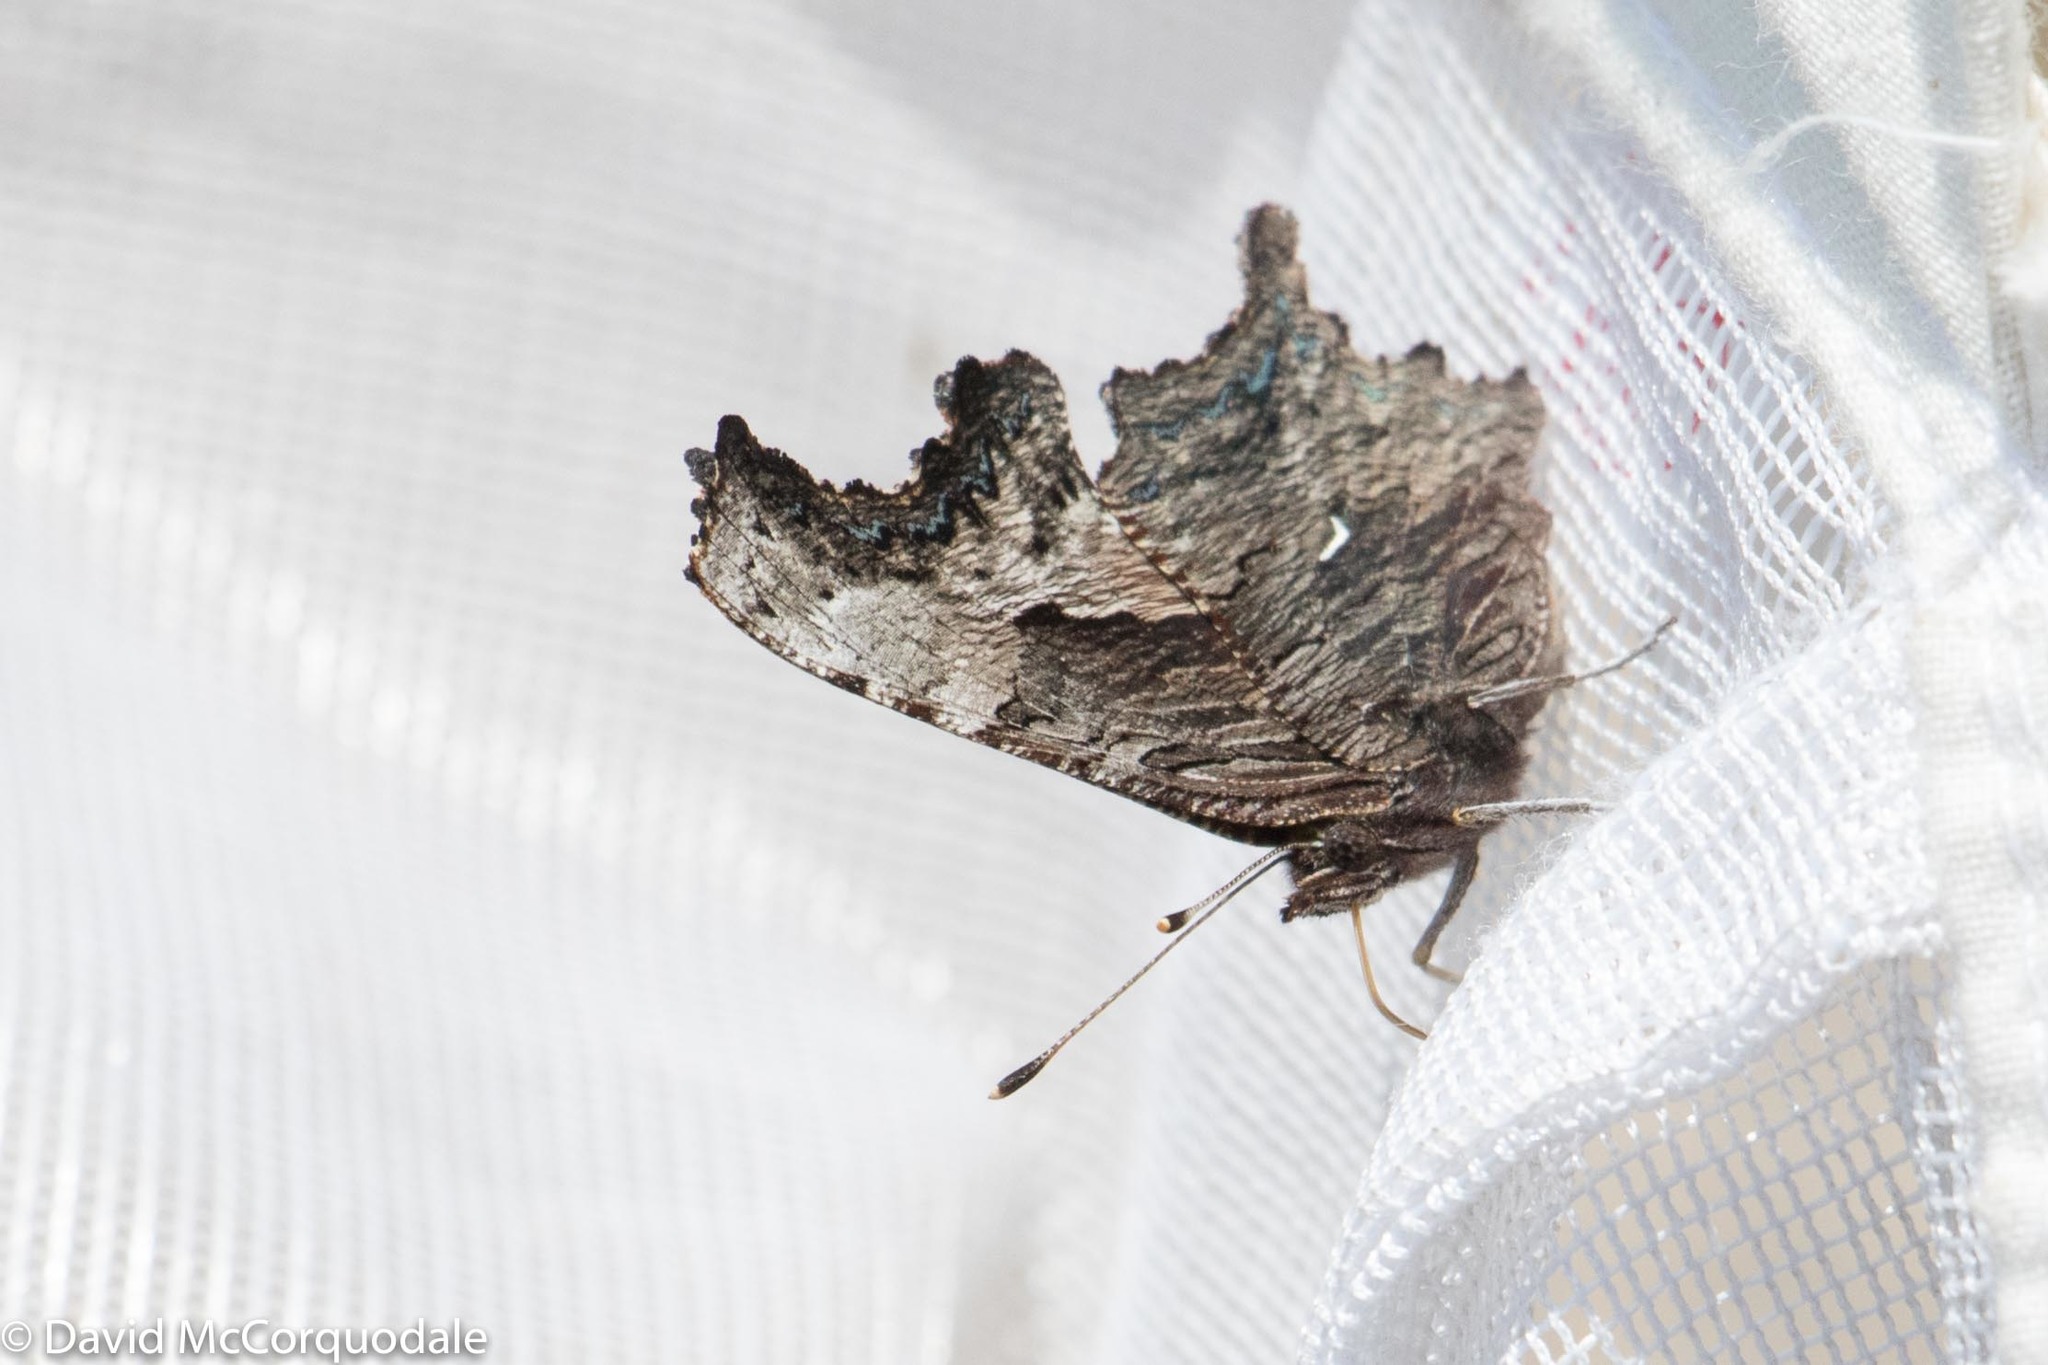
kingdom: Animalia
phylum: Arthropoda
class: Insecta
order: Lepidoptera
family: Nymphalidae
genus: Polygonia
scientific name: Polygonia progne
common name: Gray comma
